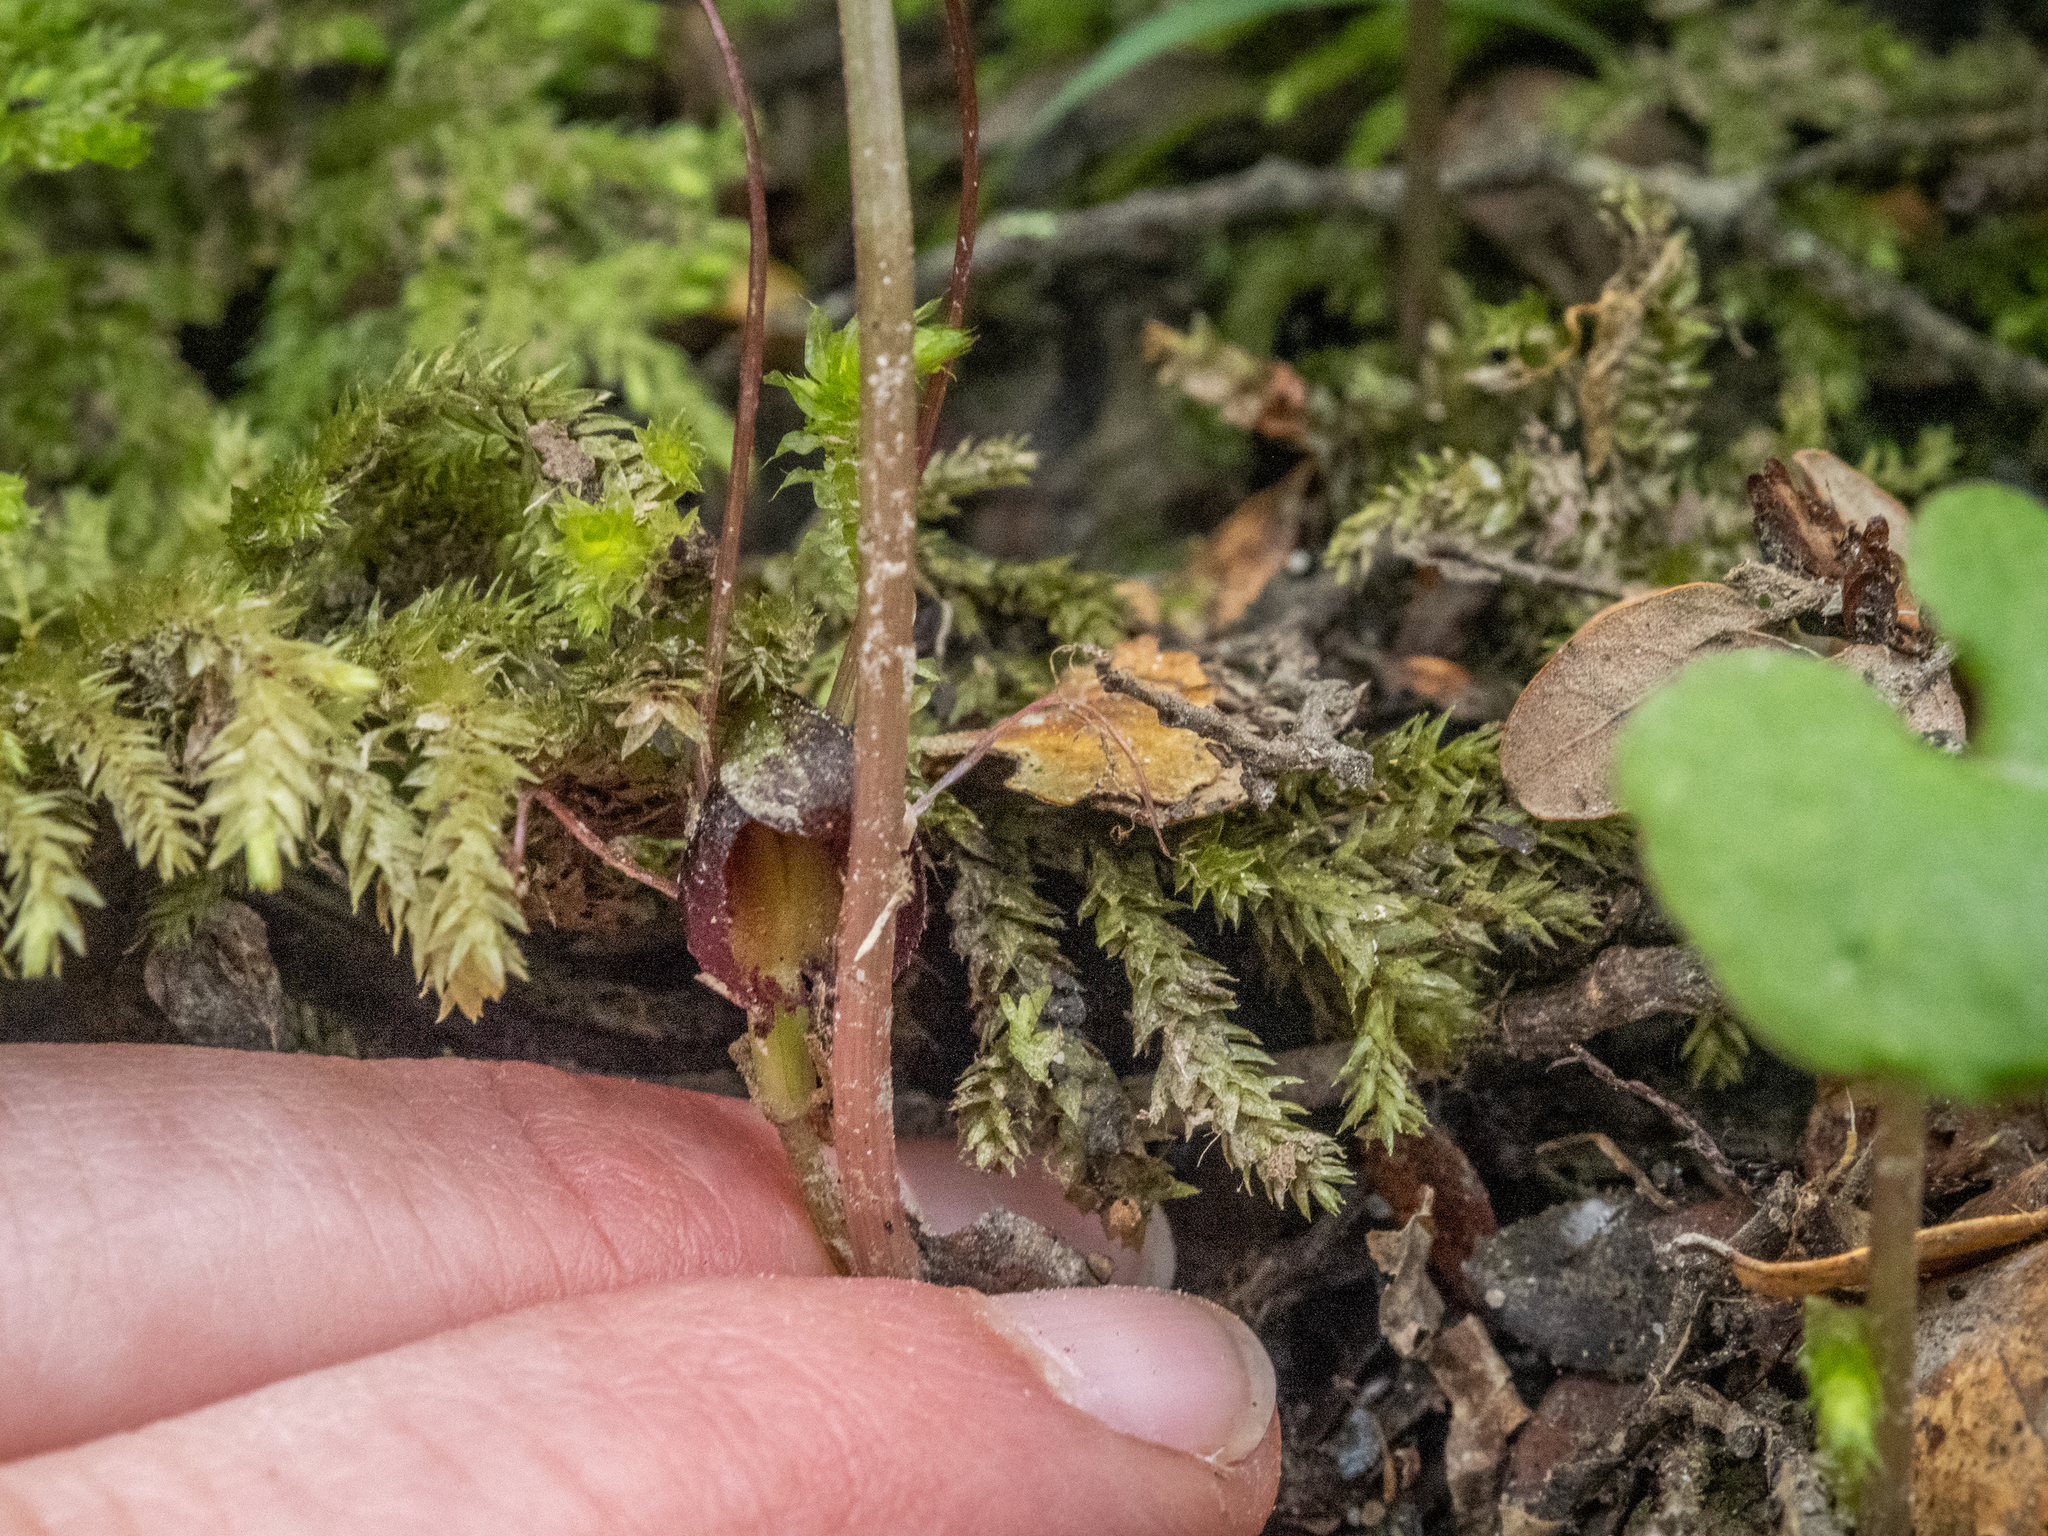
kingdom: Plantae
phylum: Tracheophyta
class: Liliopsida
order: Asparagales
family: Orchidaceae
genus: Corybas
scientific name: Corybas hypogaeus
